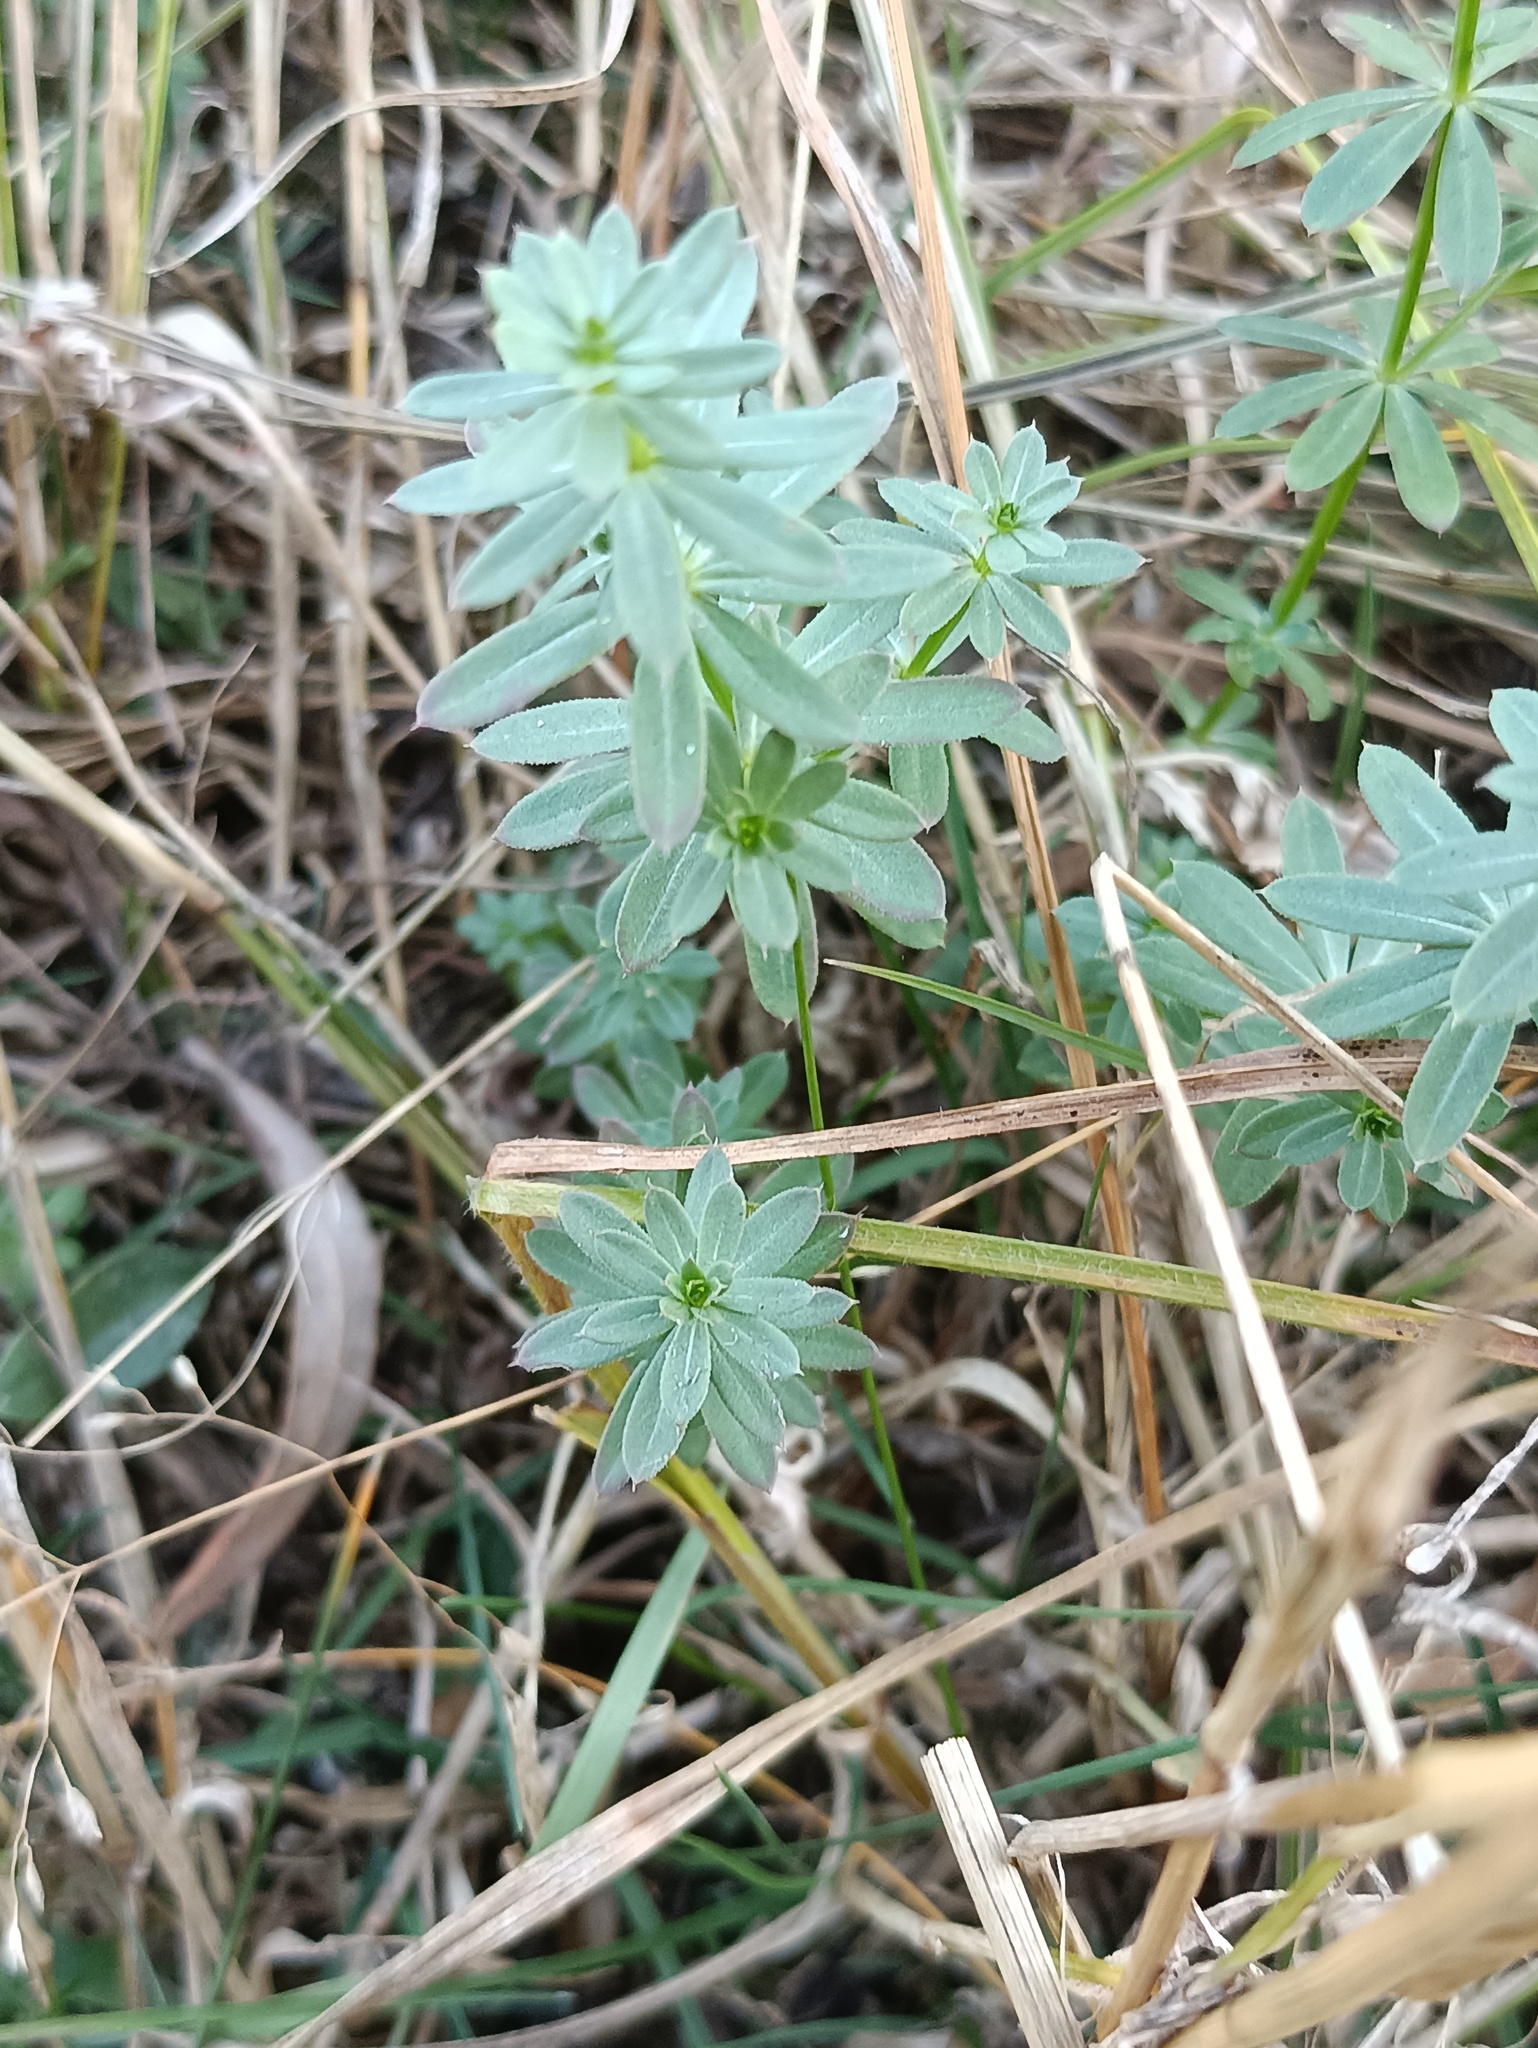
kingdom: Plantae
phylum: Tracheophyta
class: Magnoliopsida
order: Gentianales
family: Rubiaceae
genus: Galium
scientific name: Galium mollugo
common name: Hedge bedstraw
